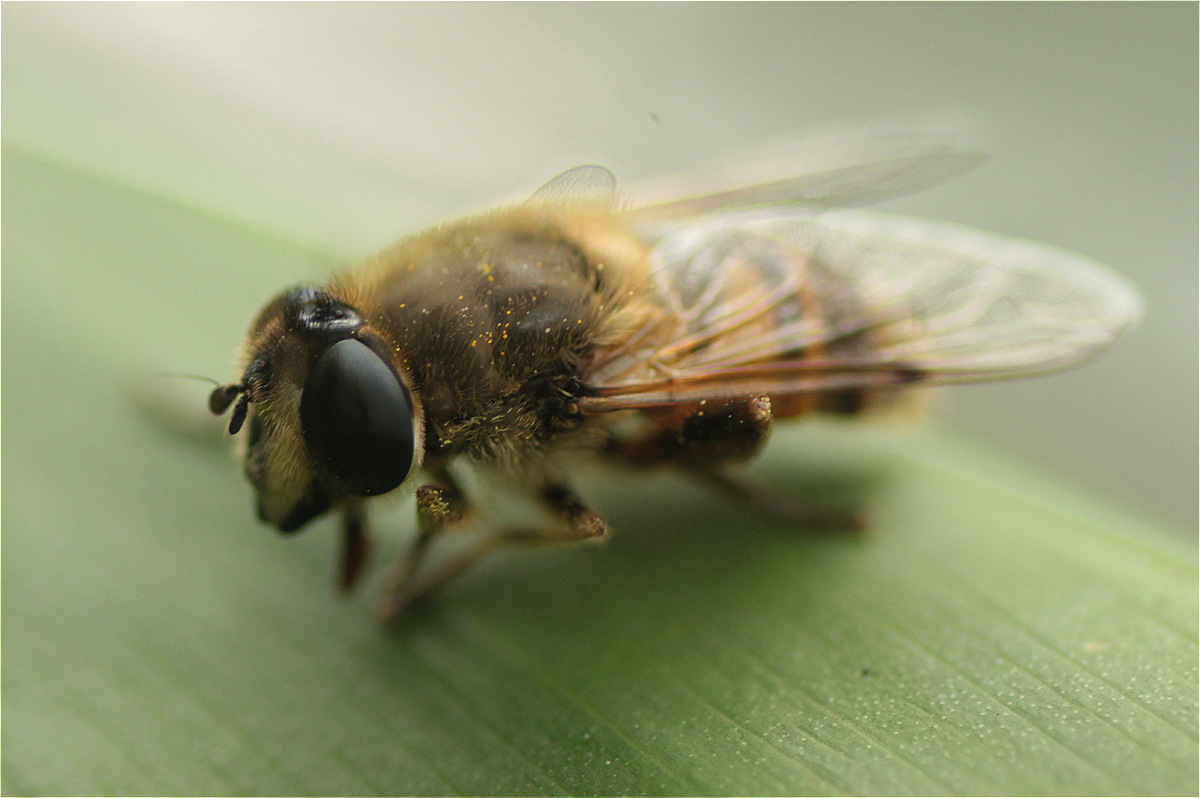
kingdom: Animalia
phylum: Arthropoda
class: Insecta
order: Diptera
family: Syrphidae
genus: Eristalis
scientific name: Eristalis tenax
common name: Drone fly
